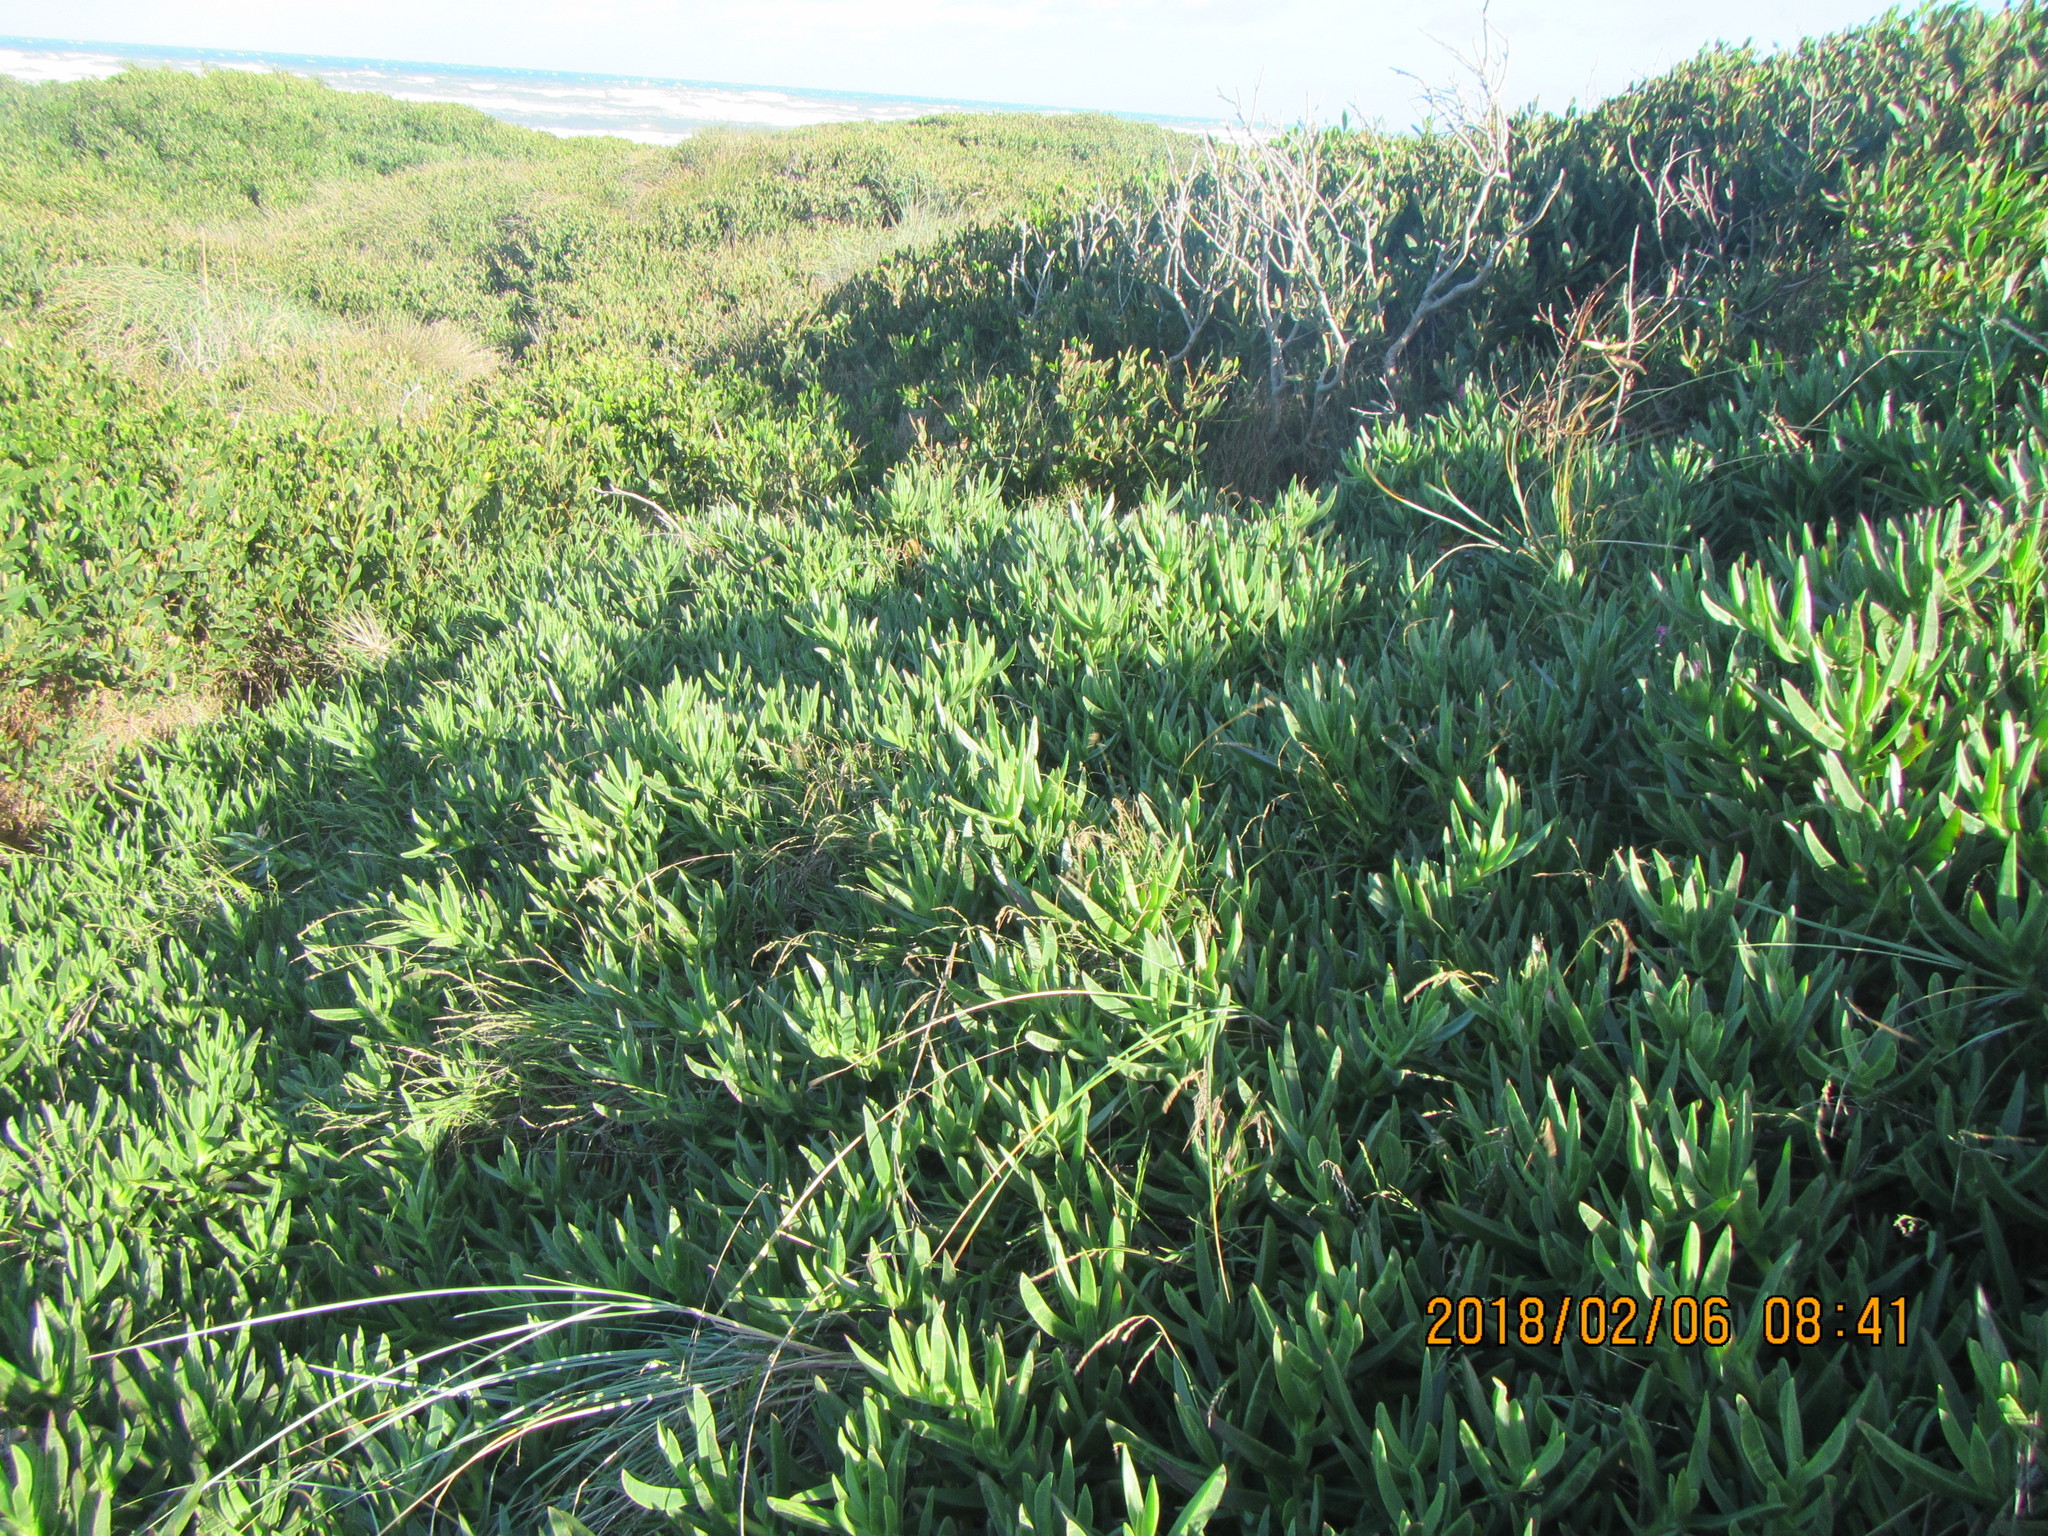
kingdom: Plantae
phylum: Tracheophyta
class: Magnoliopsida
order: Caryophyllales
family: Aizoaceae
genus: Carpobrotus
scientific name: Carpobrotus chilensis
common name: Sea fig
